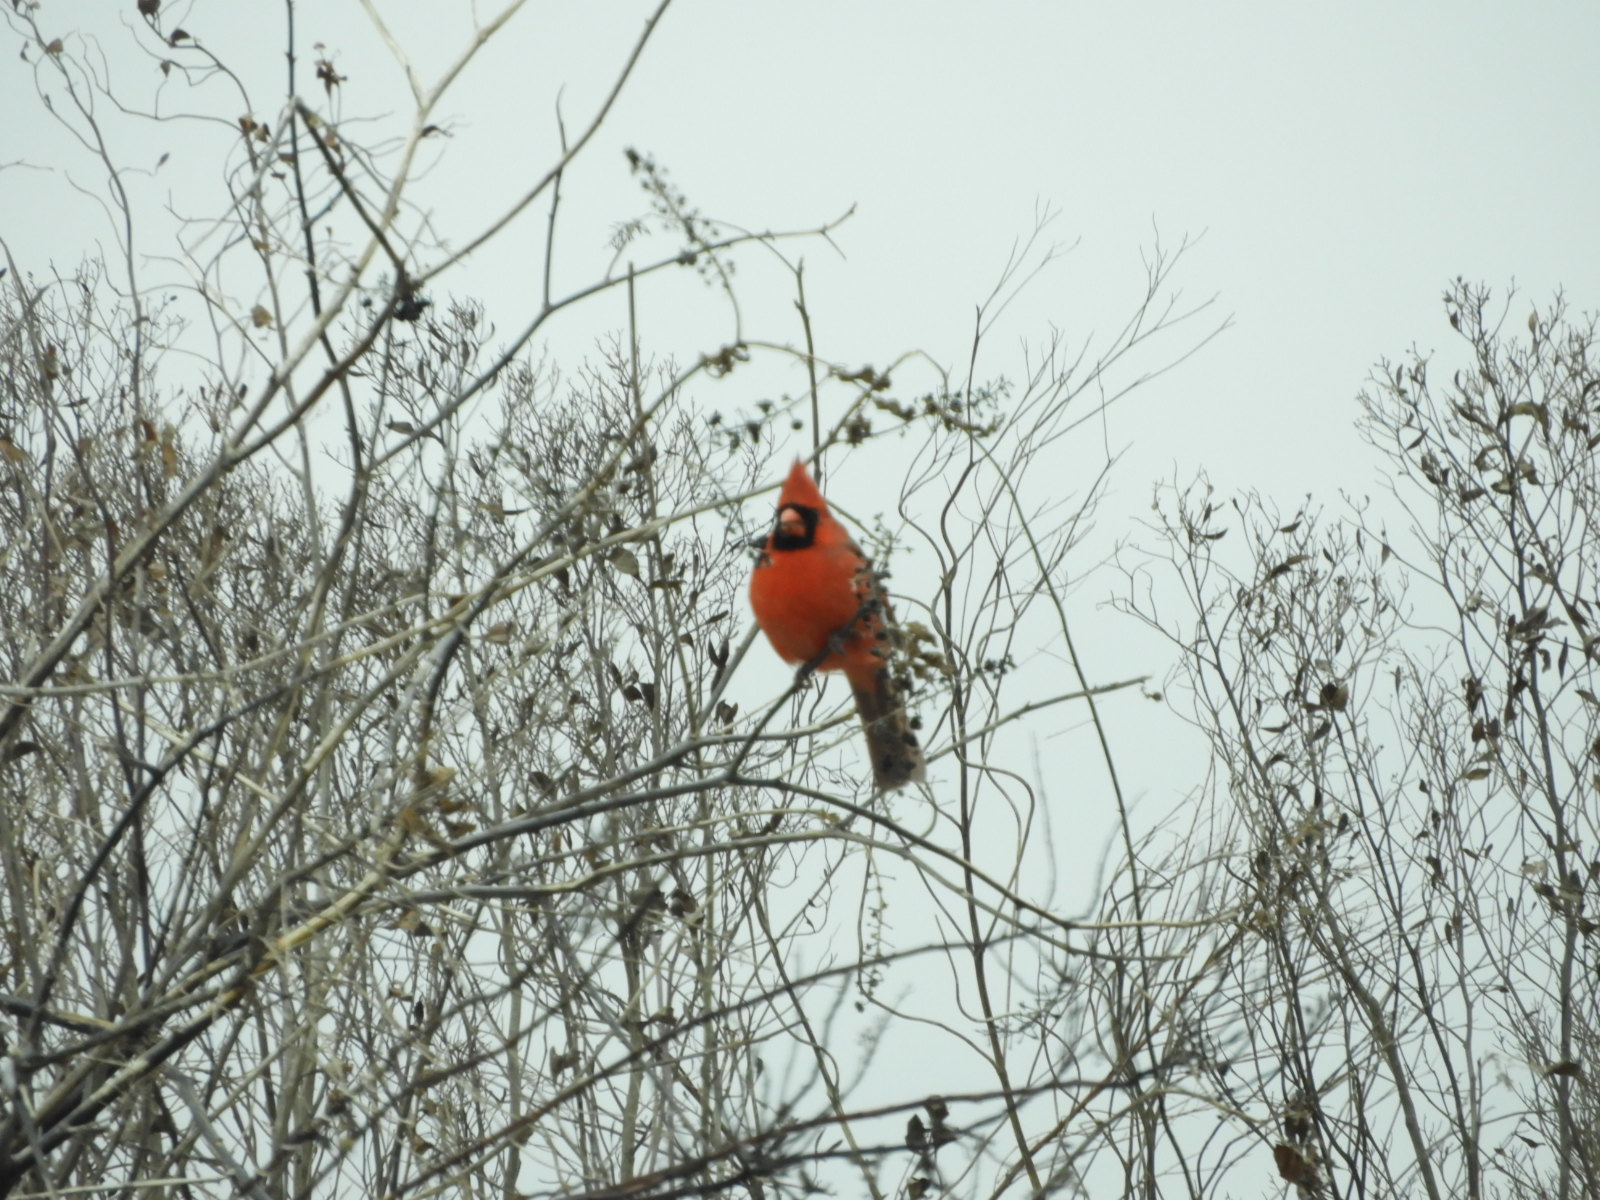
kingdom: Animalia
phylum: Chordata
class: Aves
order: Passeriformes
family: Cardinalidae
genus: Cardinalis
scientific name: Cardinalis cardinalis
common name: Northern cardinal
